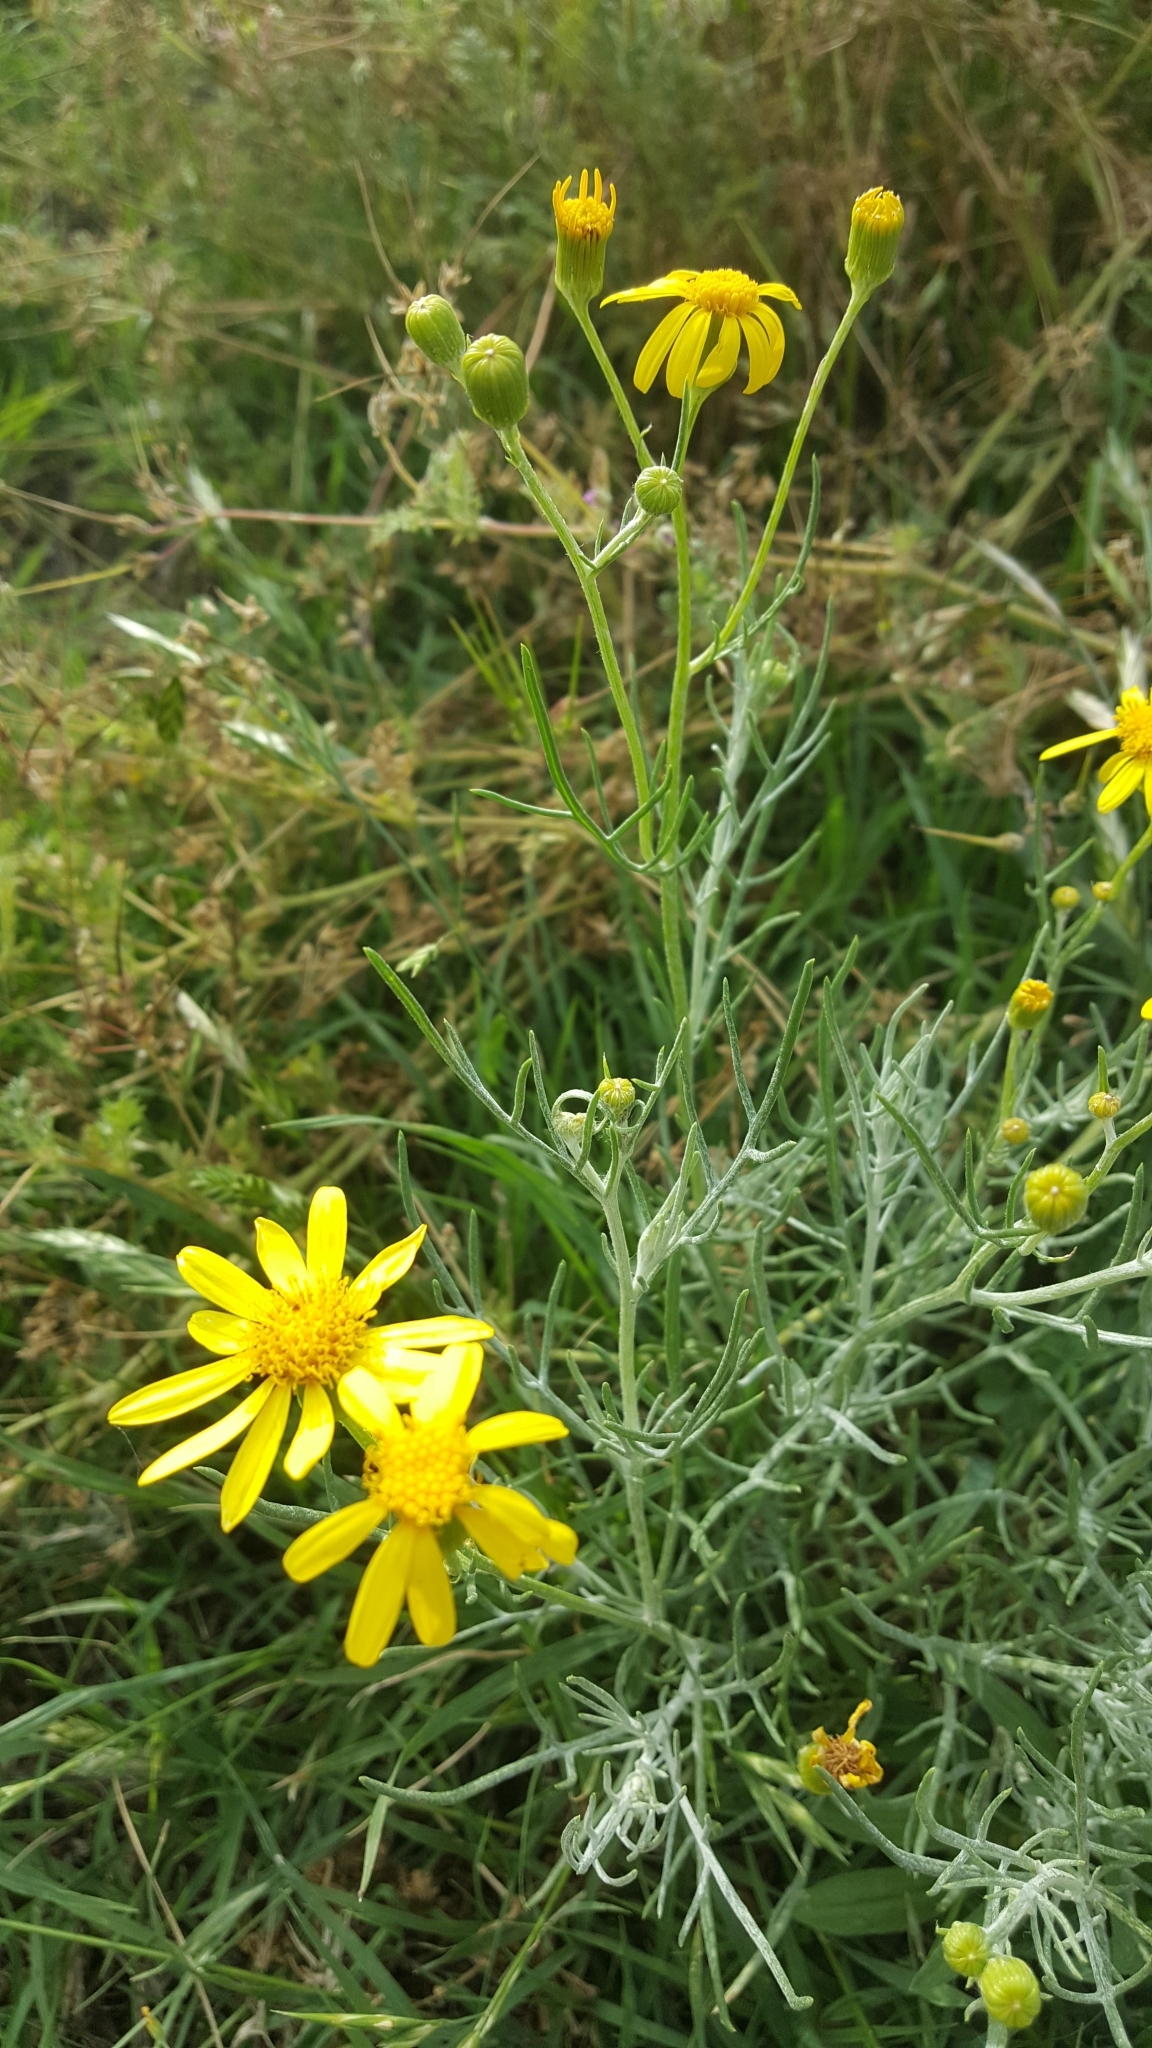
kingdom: Plantae
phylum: Tracheophyta
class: Magnoliopsida
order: Asterales
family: Asteraceae
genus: Senecio
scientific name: Senecio flaccidus
